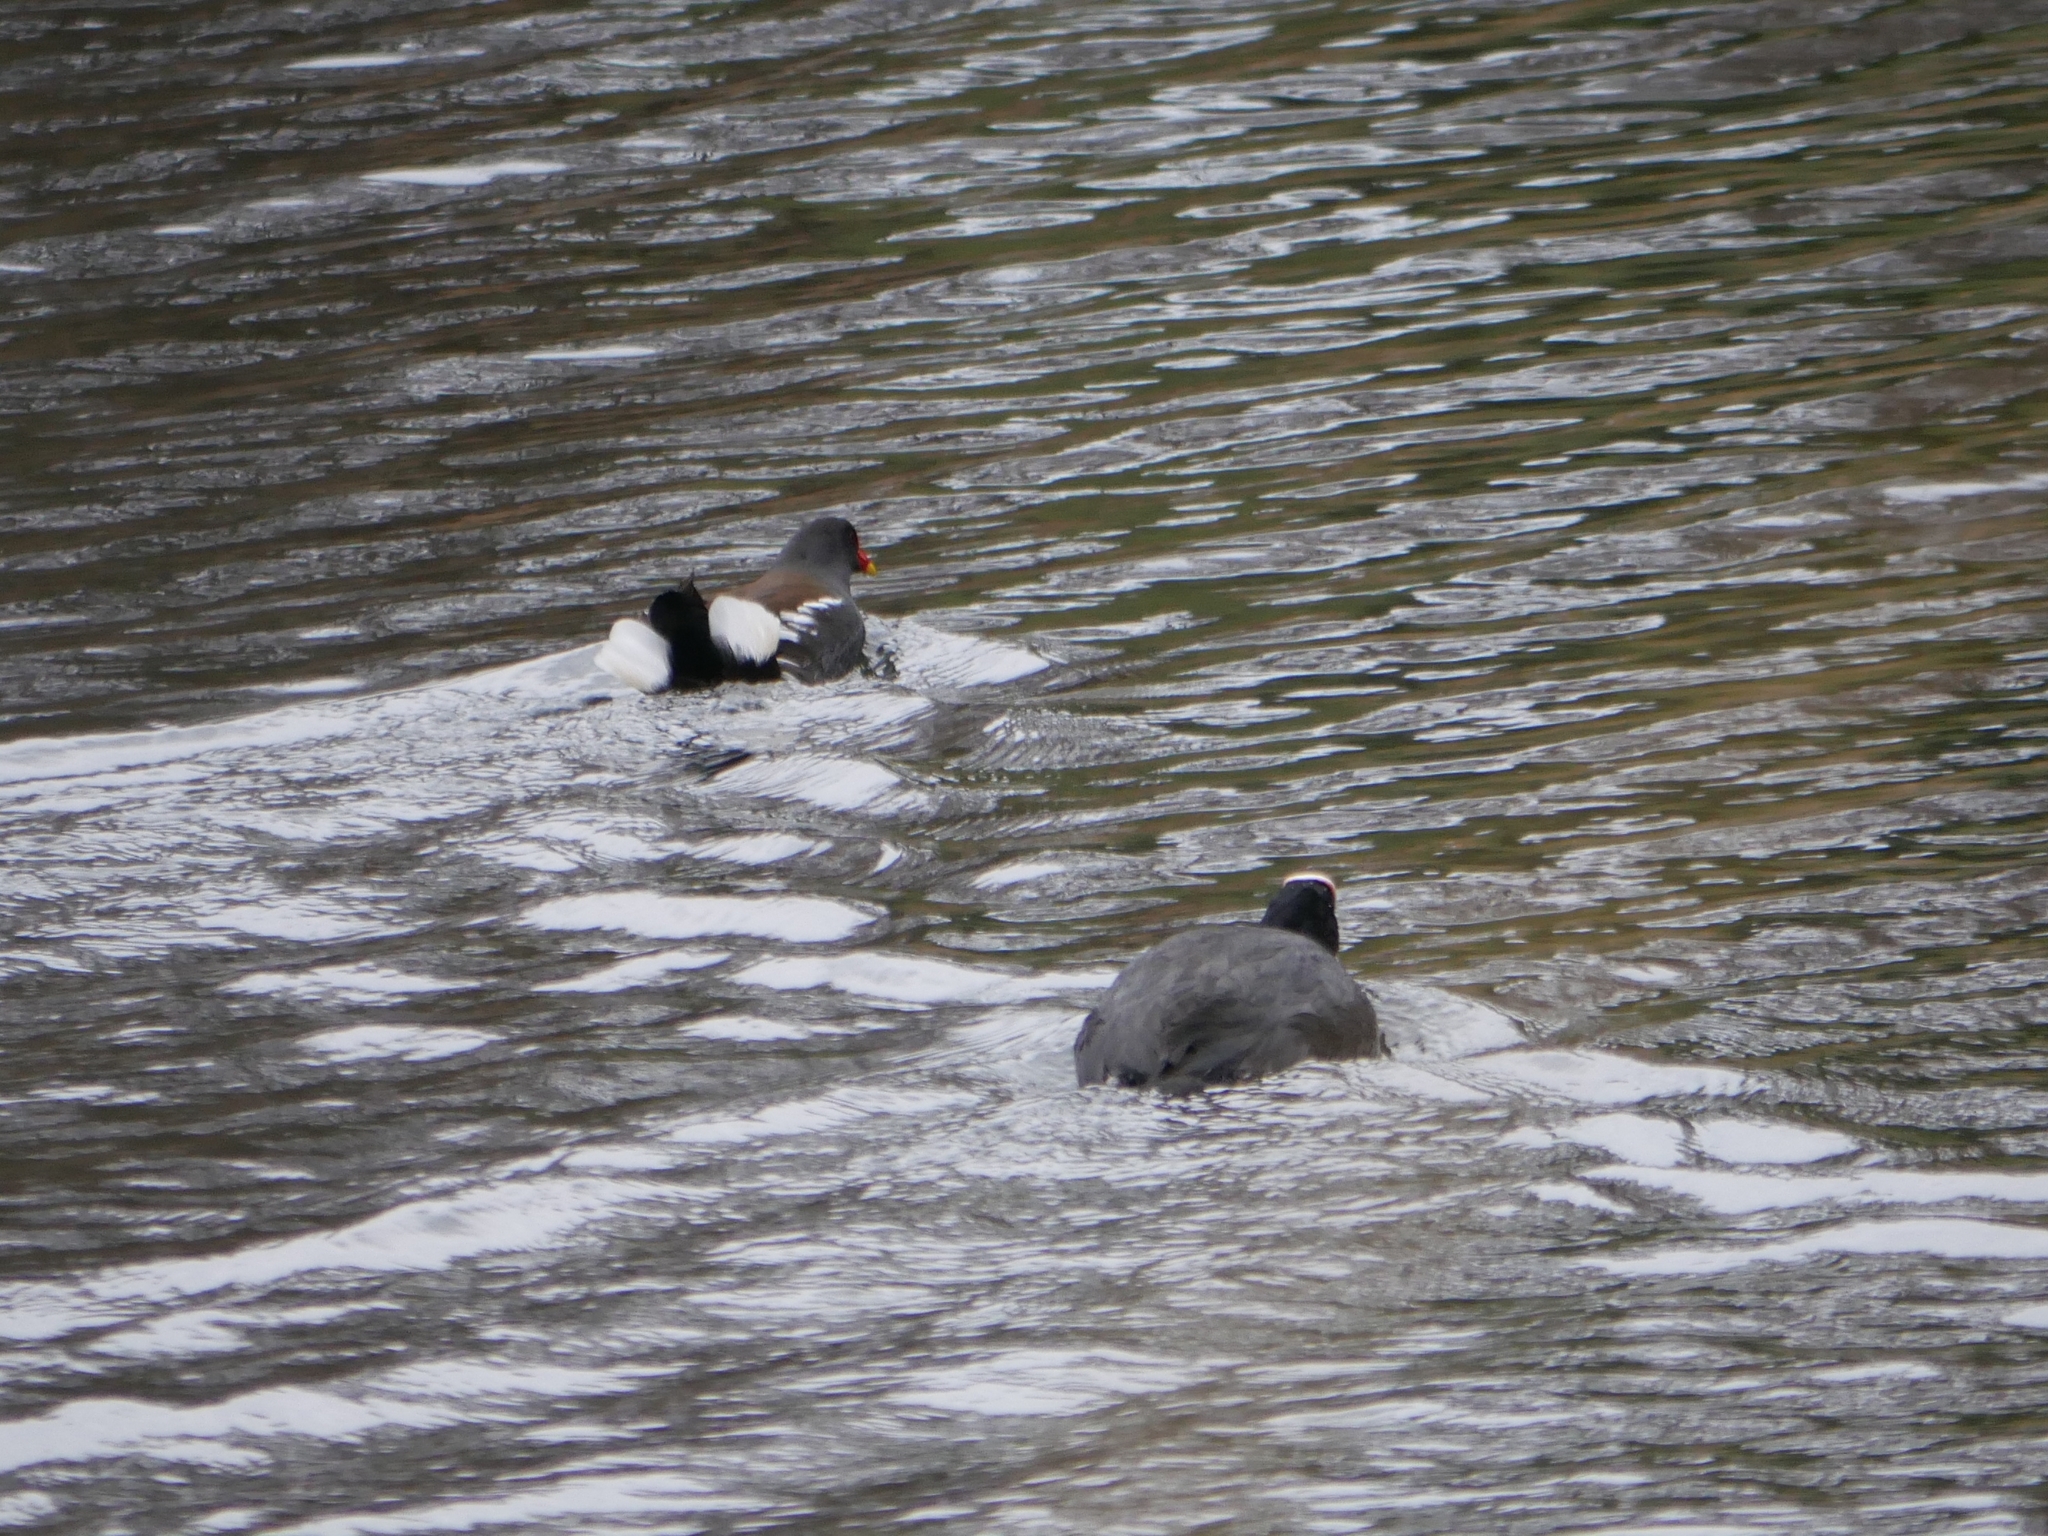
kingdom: Animalia
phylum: Chordata
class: Aves
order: Gruiformes
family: Rallidae
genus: Gallinula
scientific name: Gallinula chloropus
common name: Common moorhen
